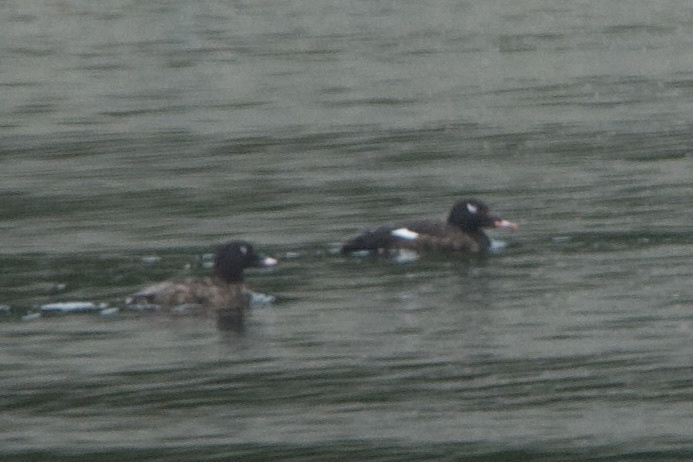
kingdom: Animalia
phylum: Chordata
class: Aves
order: Anseriformes
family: Anatidae
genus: Melanitta
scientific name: Melanitta deglandi
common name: White-winged scoter
